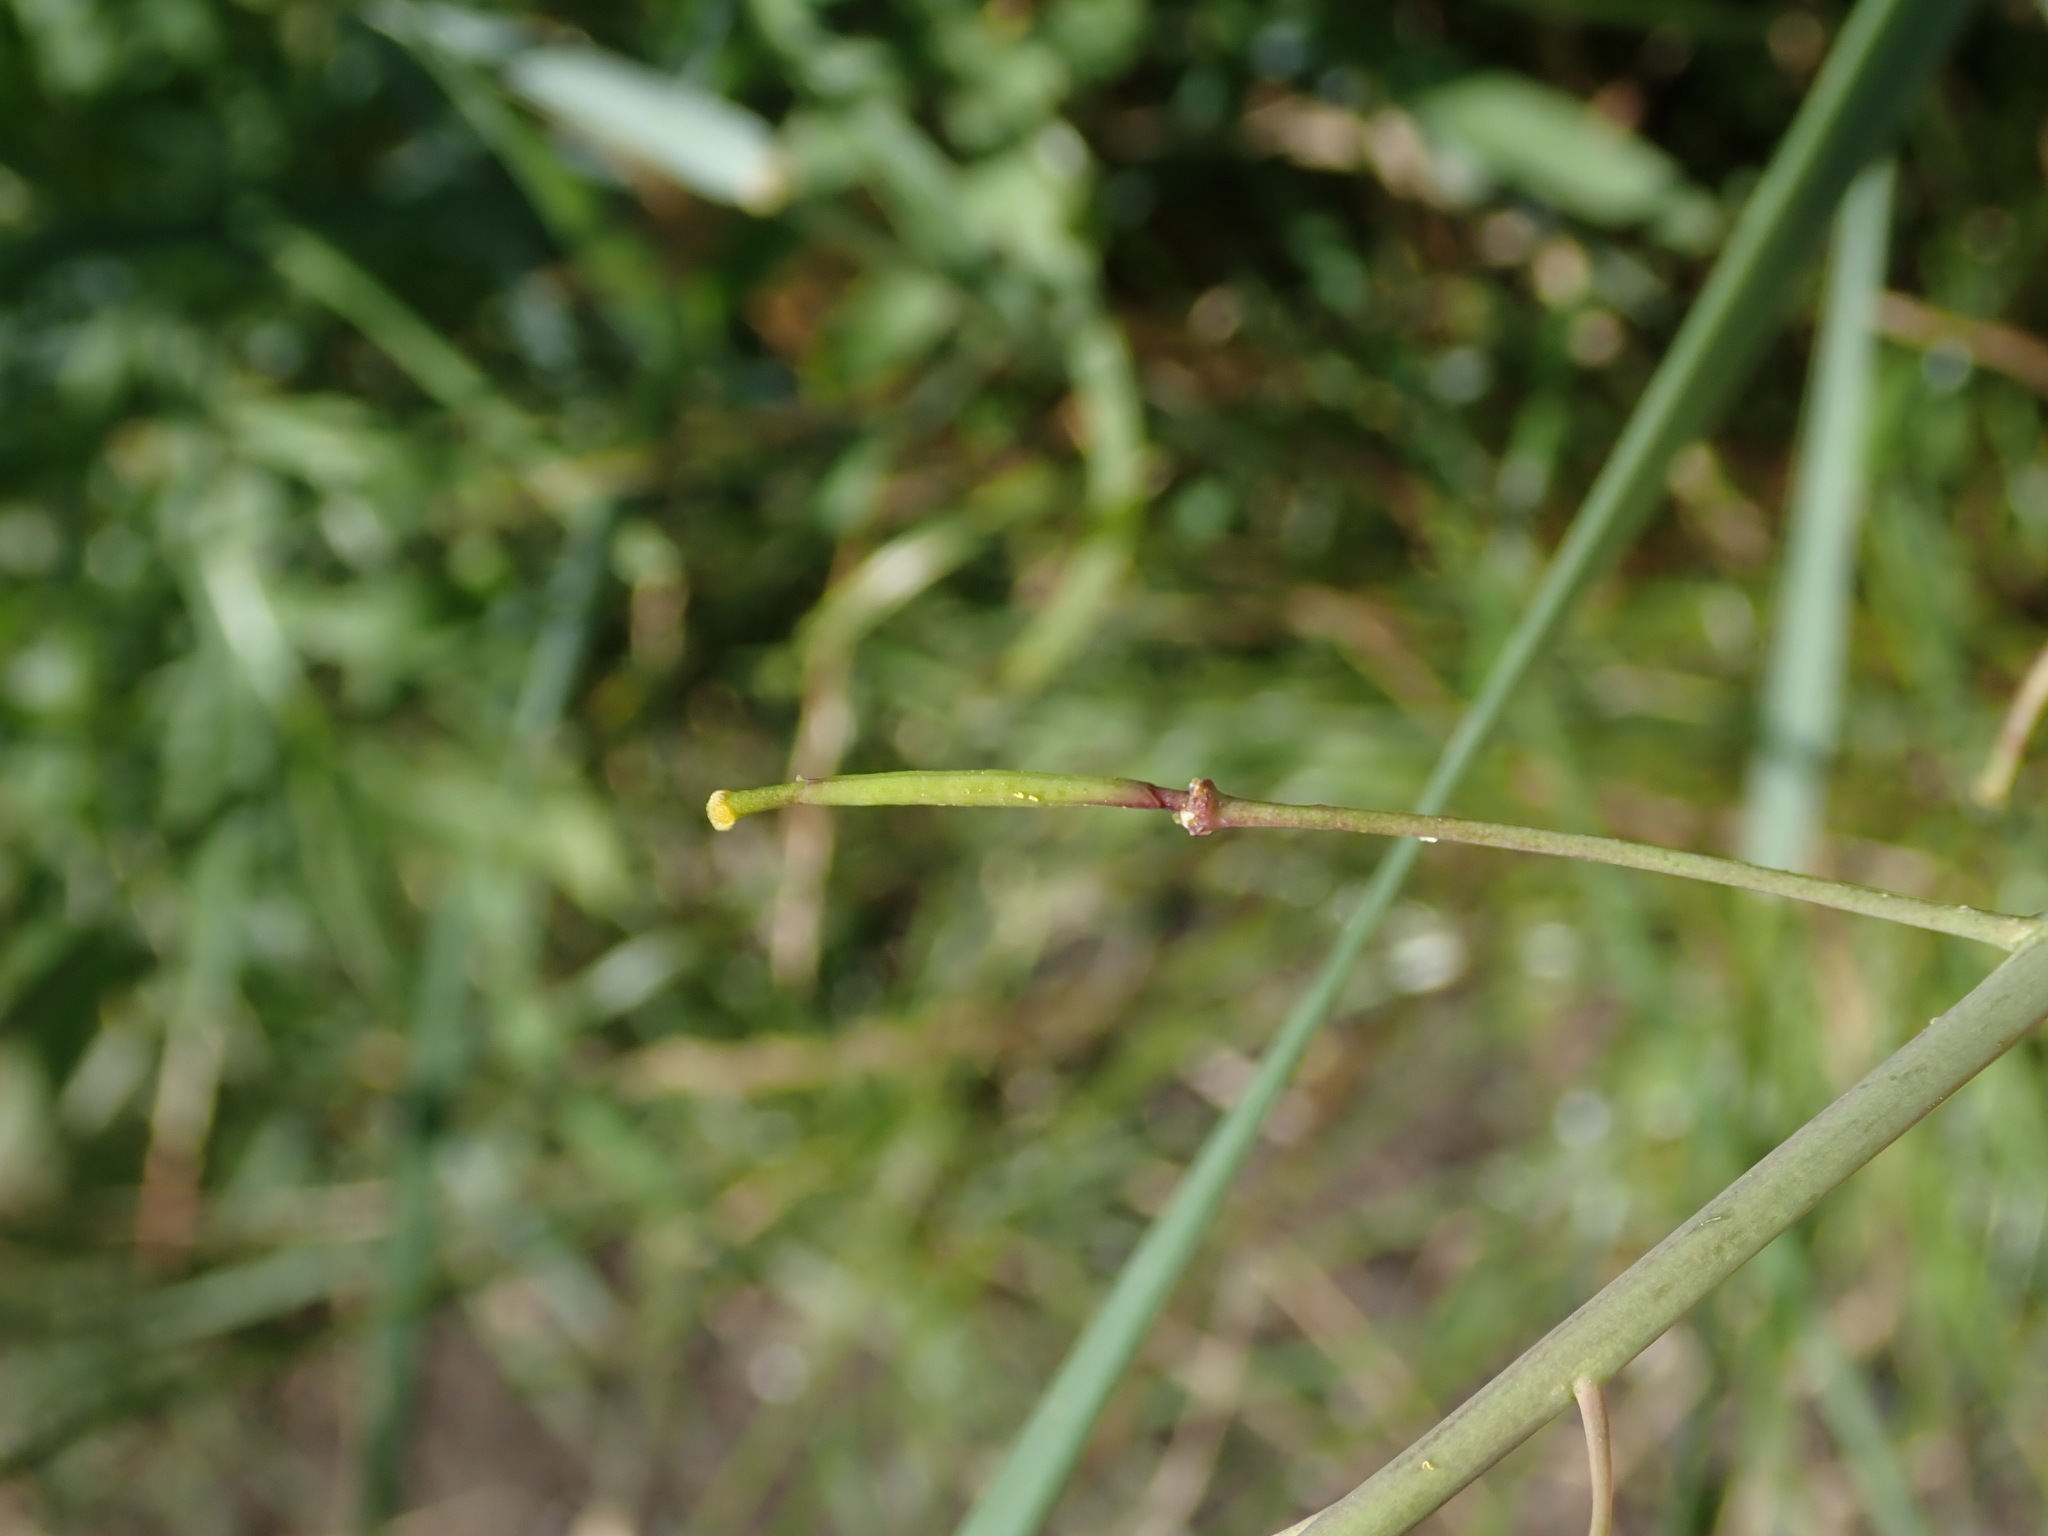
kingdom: Plantae
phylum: Tracheophyta
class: Magnoliopsida
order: Brassicales
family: Brassicaceae
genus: Diplotaxis
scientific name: Diplotaxis tenuifolia
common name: Perennial wall-rocket
